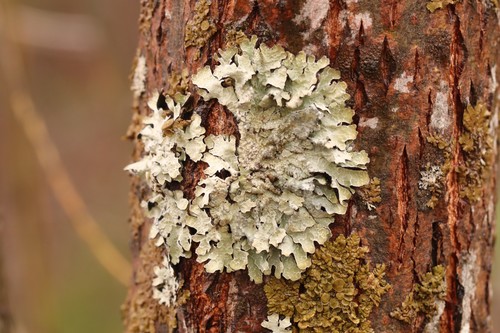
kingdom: Fungi
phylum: Ascomycota
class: Lecanoromycetes
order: Lecanorales
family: Parmeliaceae
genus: Parmelia
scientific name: Parmelia sulcata
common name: Netted shield lichen
